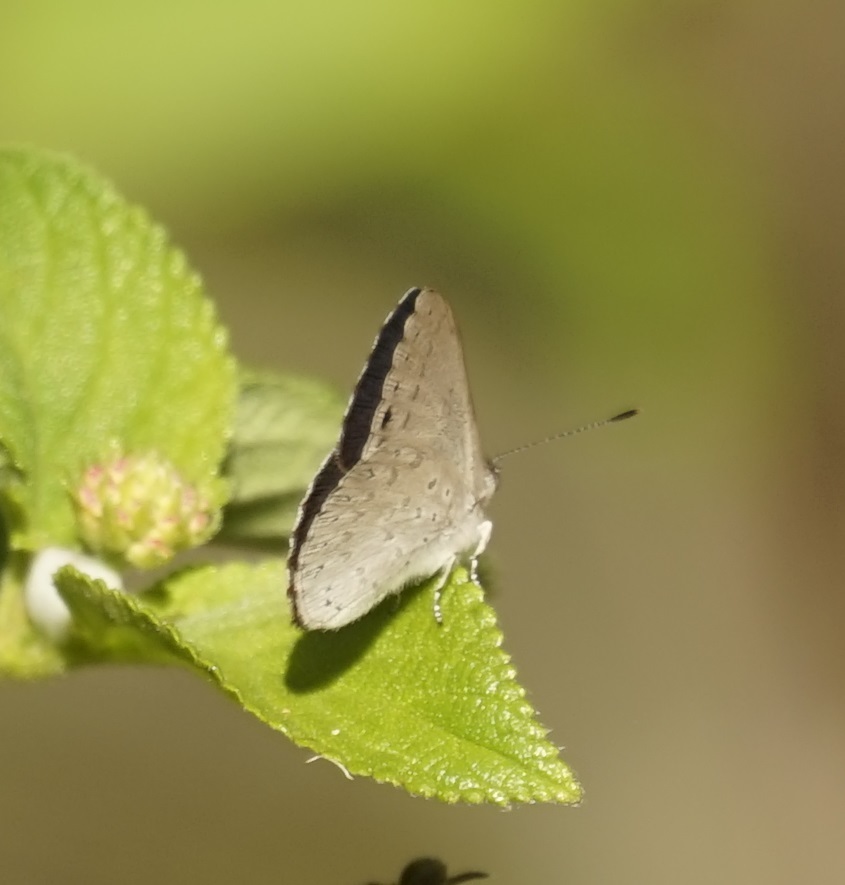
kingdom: Animalia
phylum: Arthropoda
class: Insecta
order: Lepidoptera
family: Lycaenidae
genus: Candalides
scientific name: Candalides
